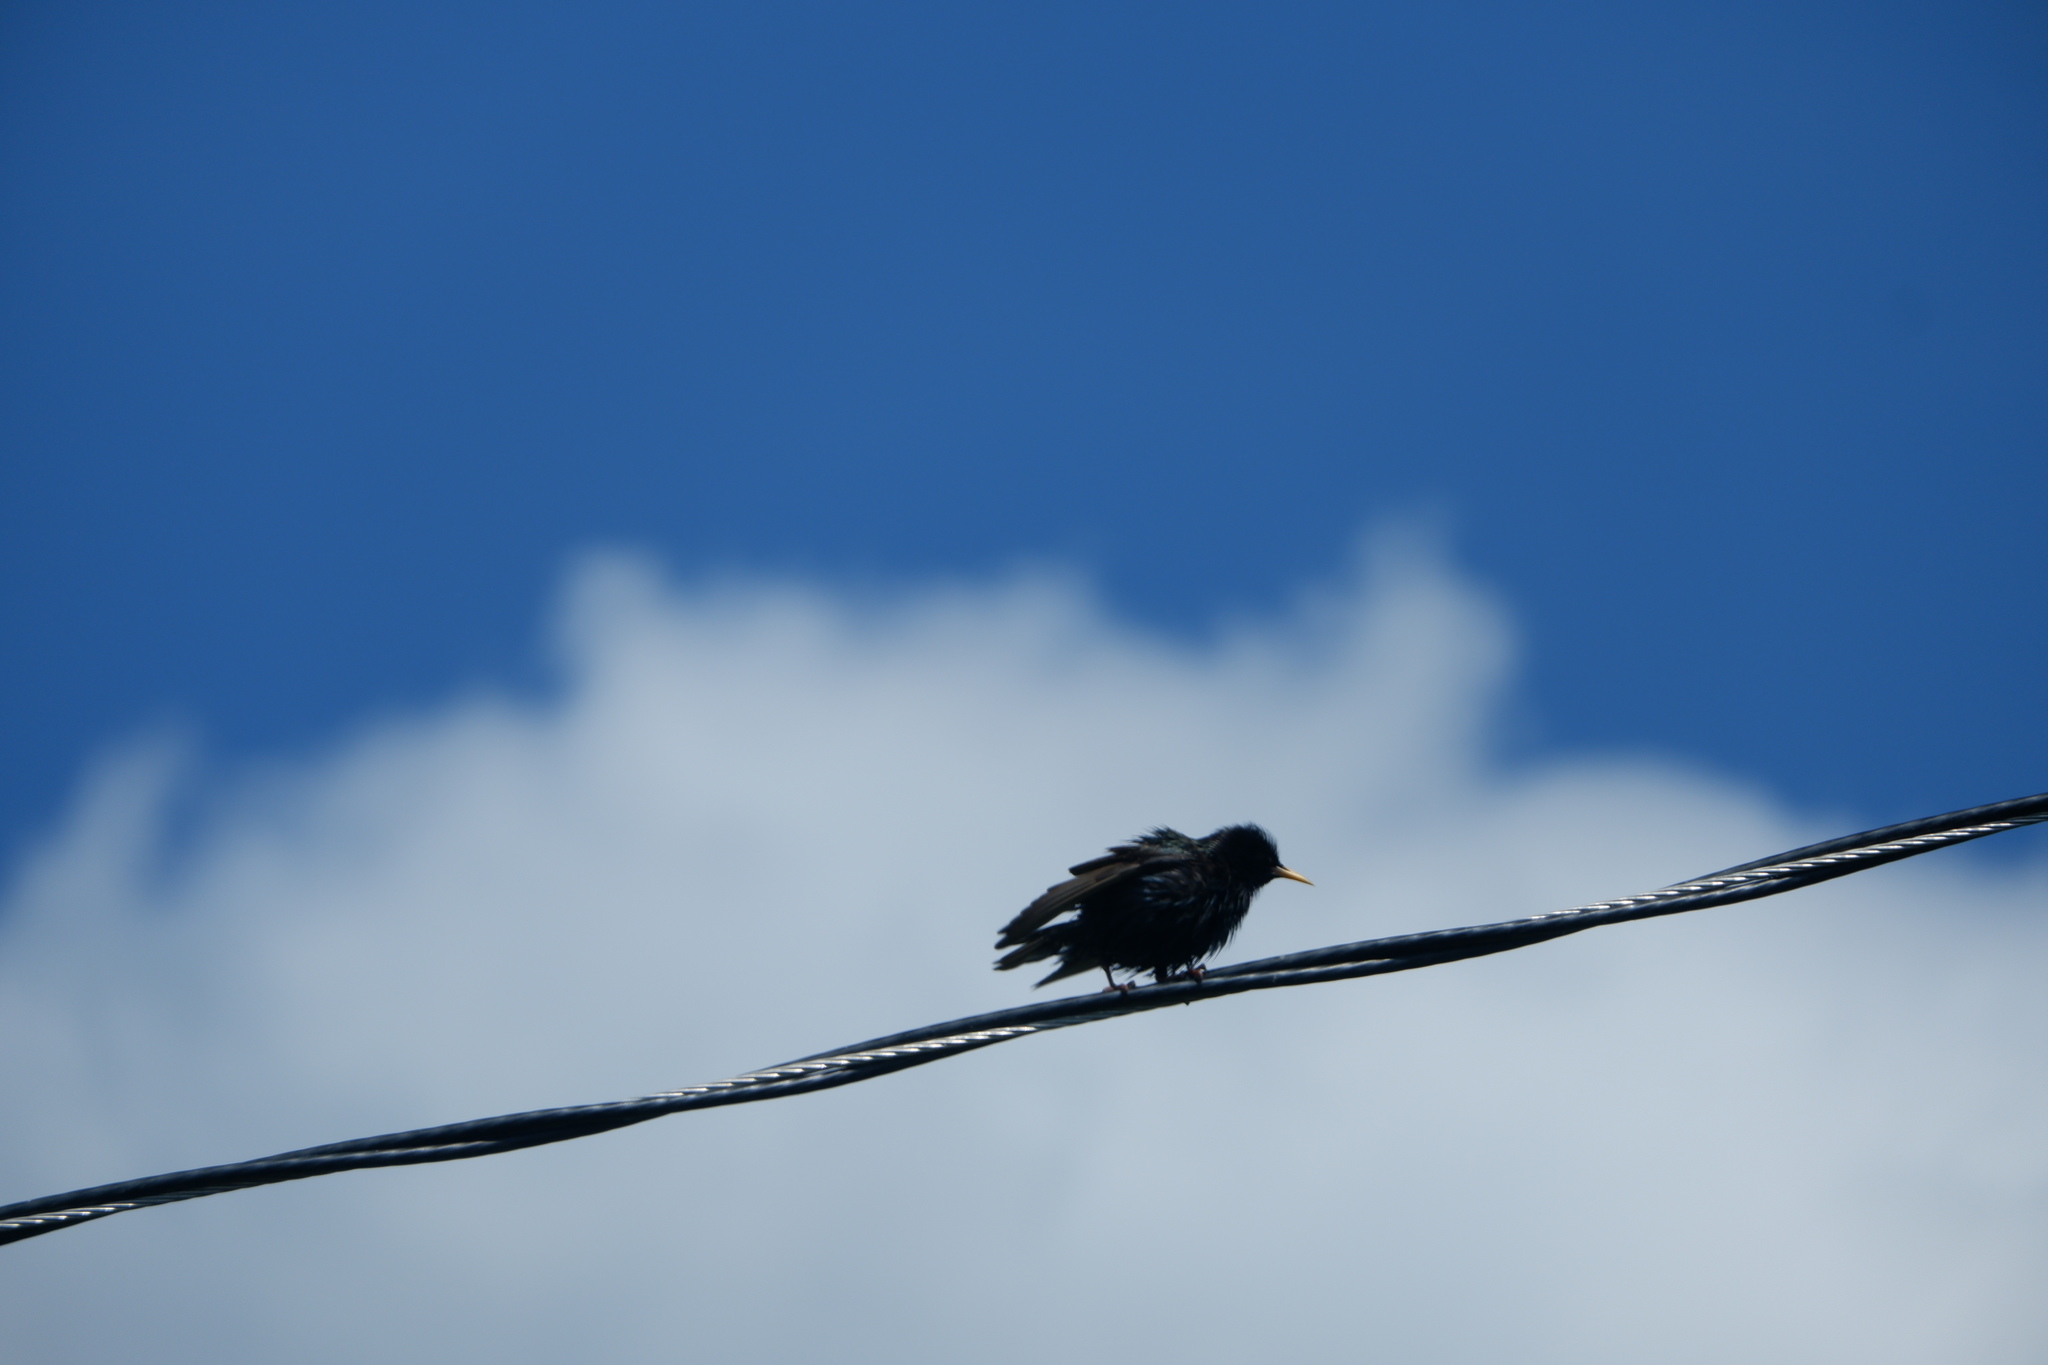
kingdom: Animalia
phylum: Chordata
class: Aves
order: Passeriformes
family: Sturnidae
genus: Sturnus
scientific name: Sturnus vulgaris
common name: Common starling
